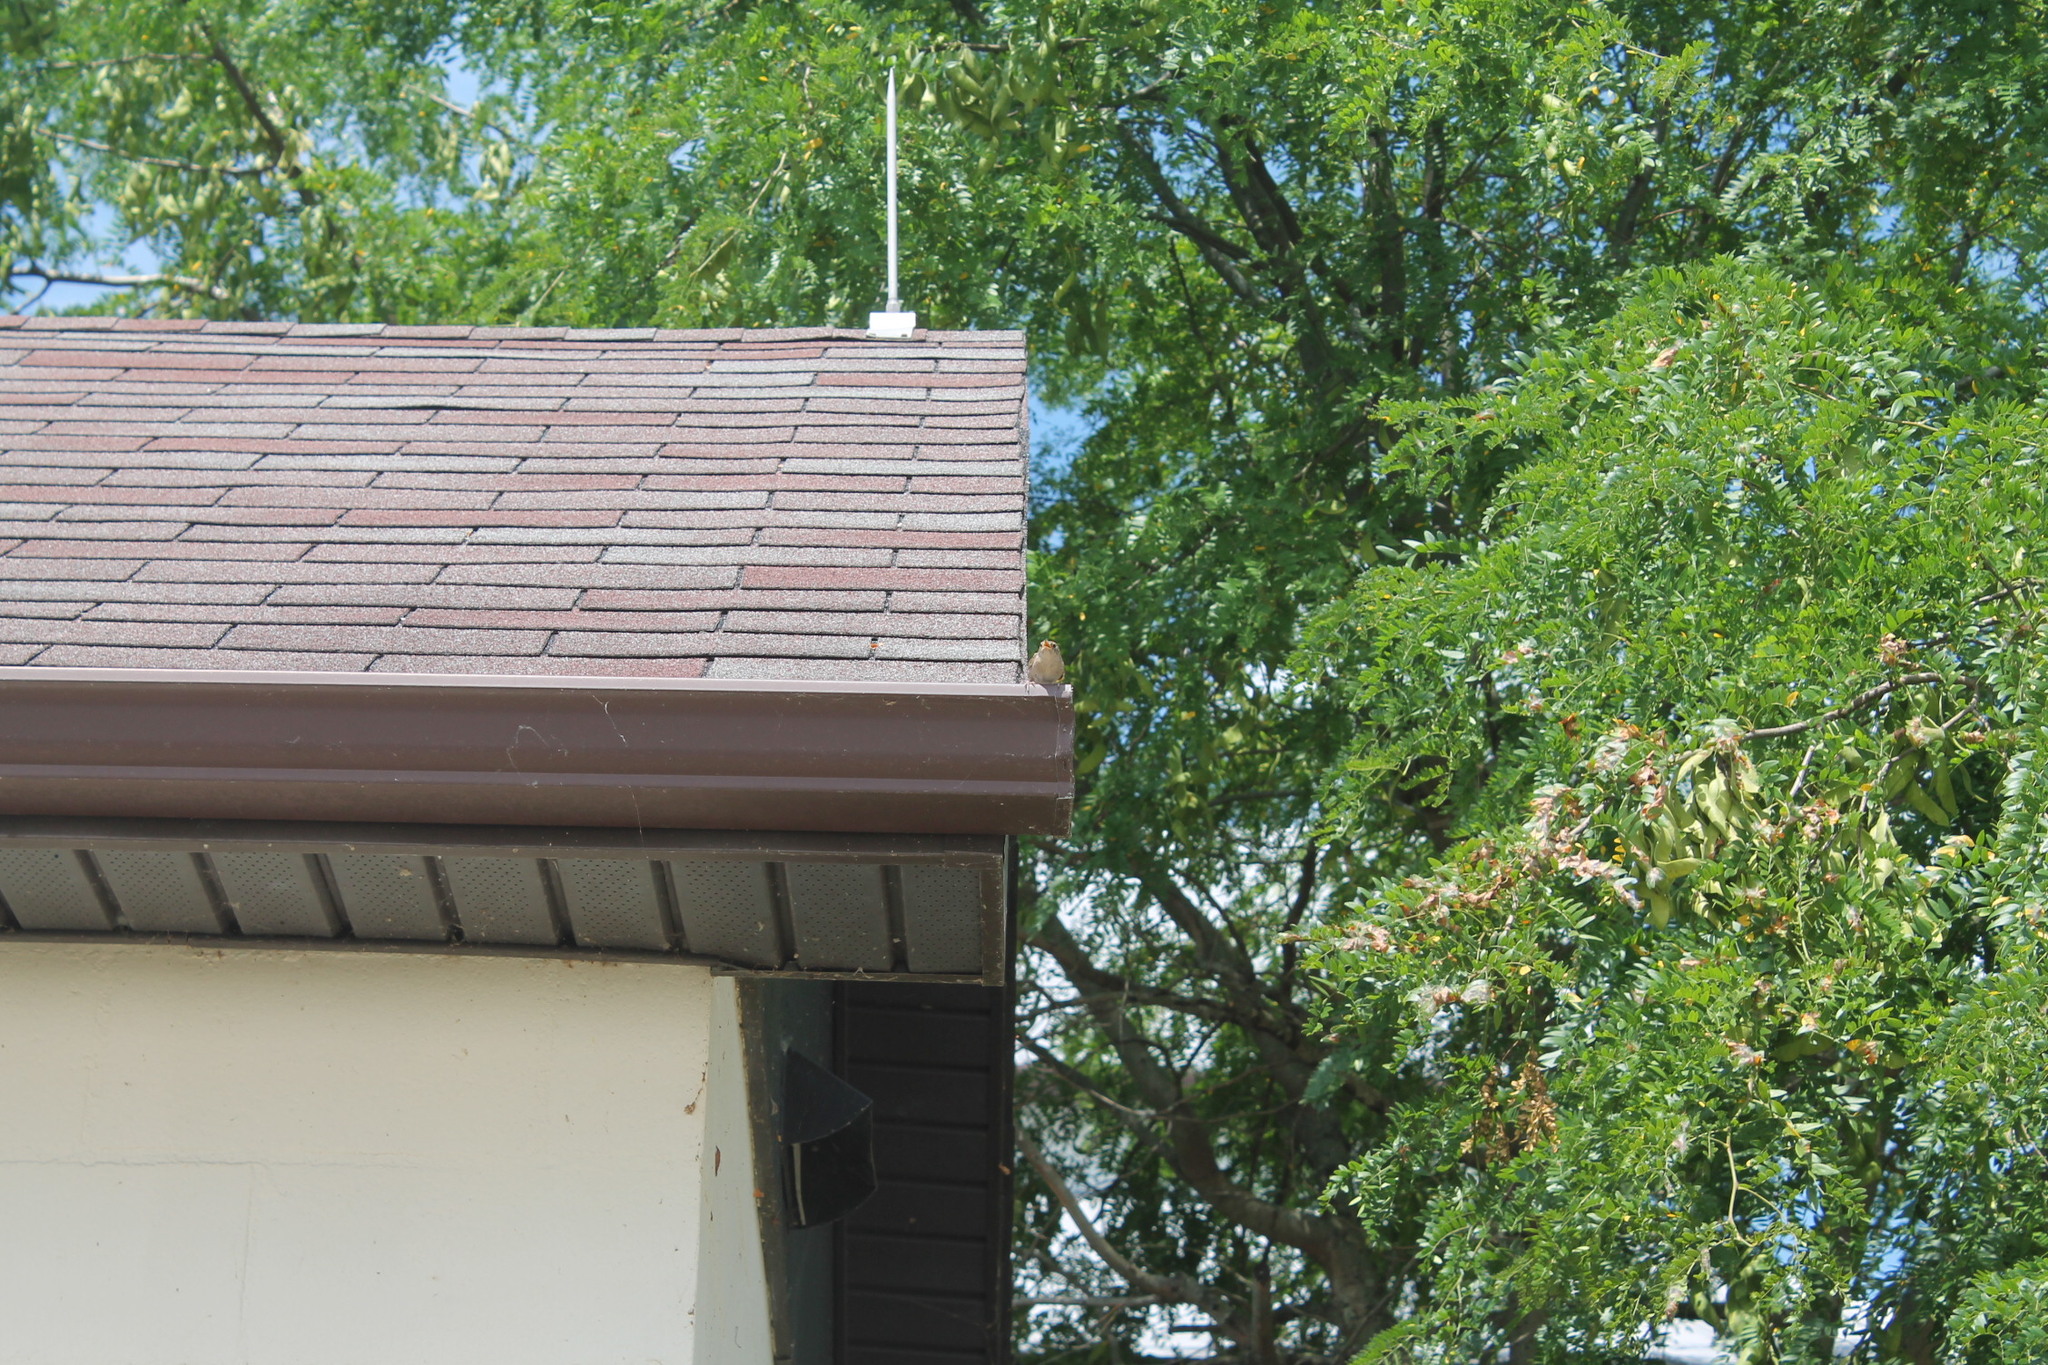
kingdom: Animalia
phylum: Chordata
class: Aves
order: Passeriformes
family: Troglodytidae
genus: Troglodytes
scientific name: Troglodytes aedon
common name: House wren
